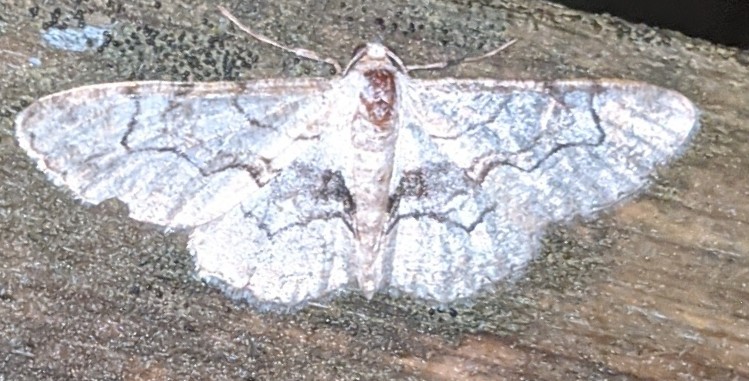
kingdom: Animalia
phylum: Arthropoda
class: Insecta
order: Lepidoptera
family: Geometridae
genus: Iridopsis
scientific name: Iridopsis larvaria
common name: Bent-line gray
